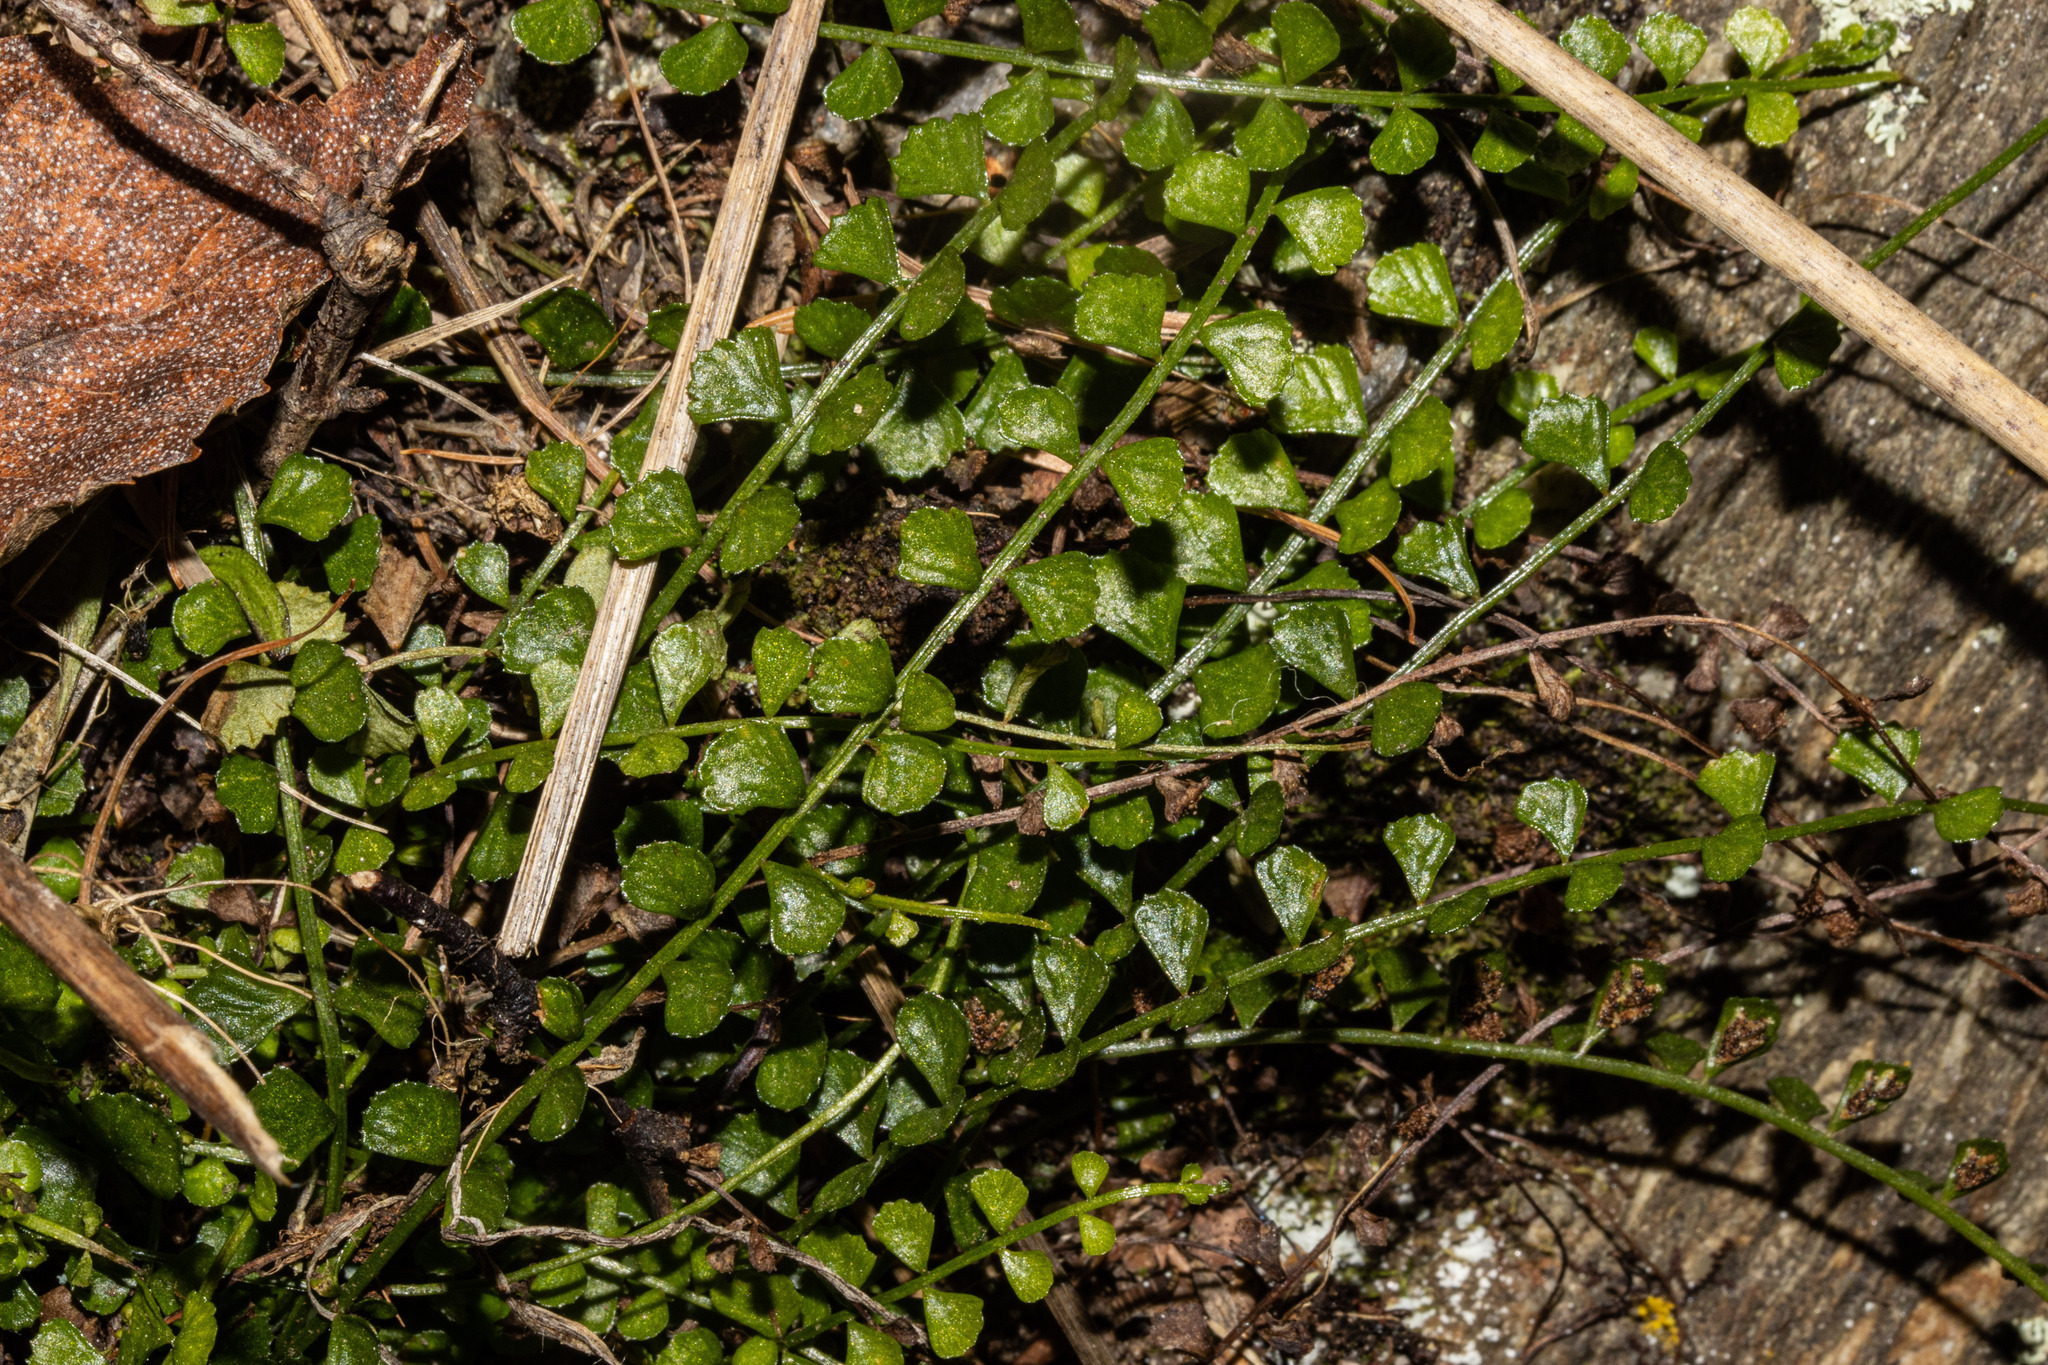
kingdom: Plantae
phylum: Tracheophyta
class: Polypodiopsida
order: Polypodiales
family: Aspleniaceae
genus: Asplenium
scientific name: Asplenium flabellifolium
